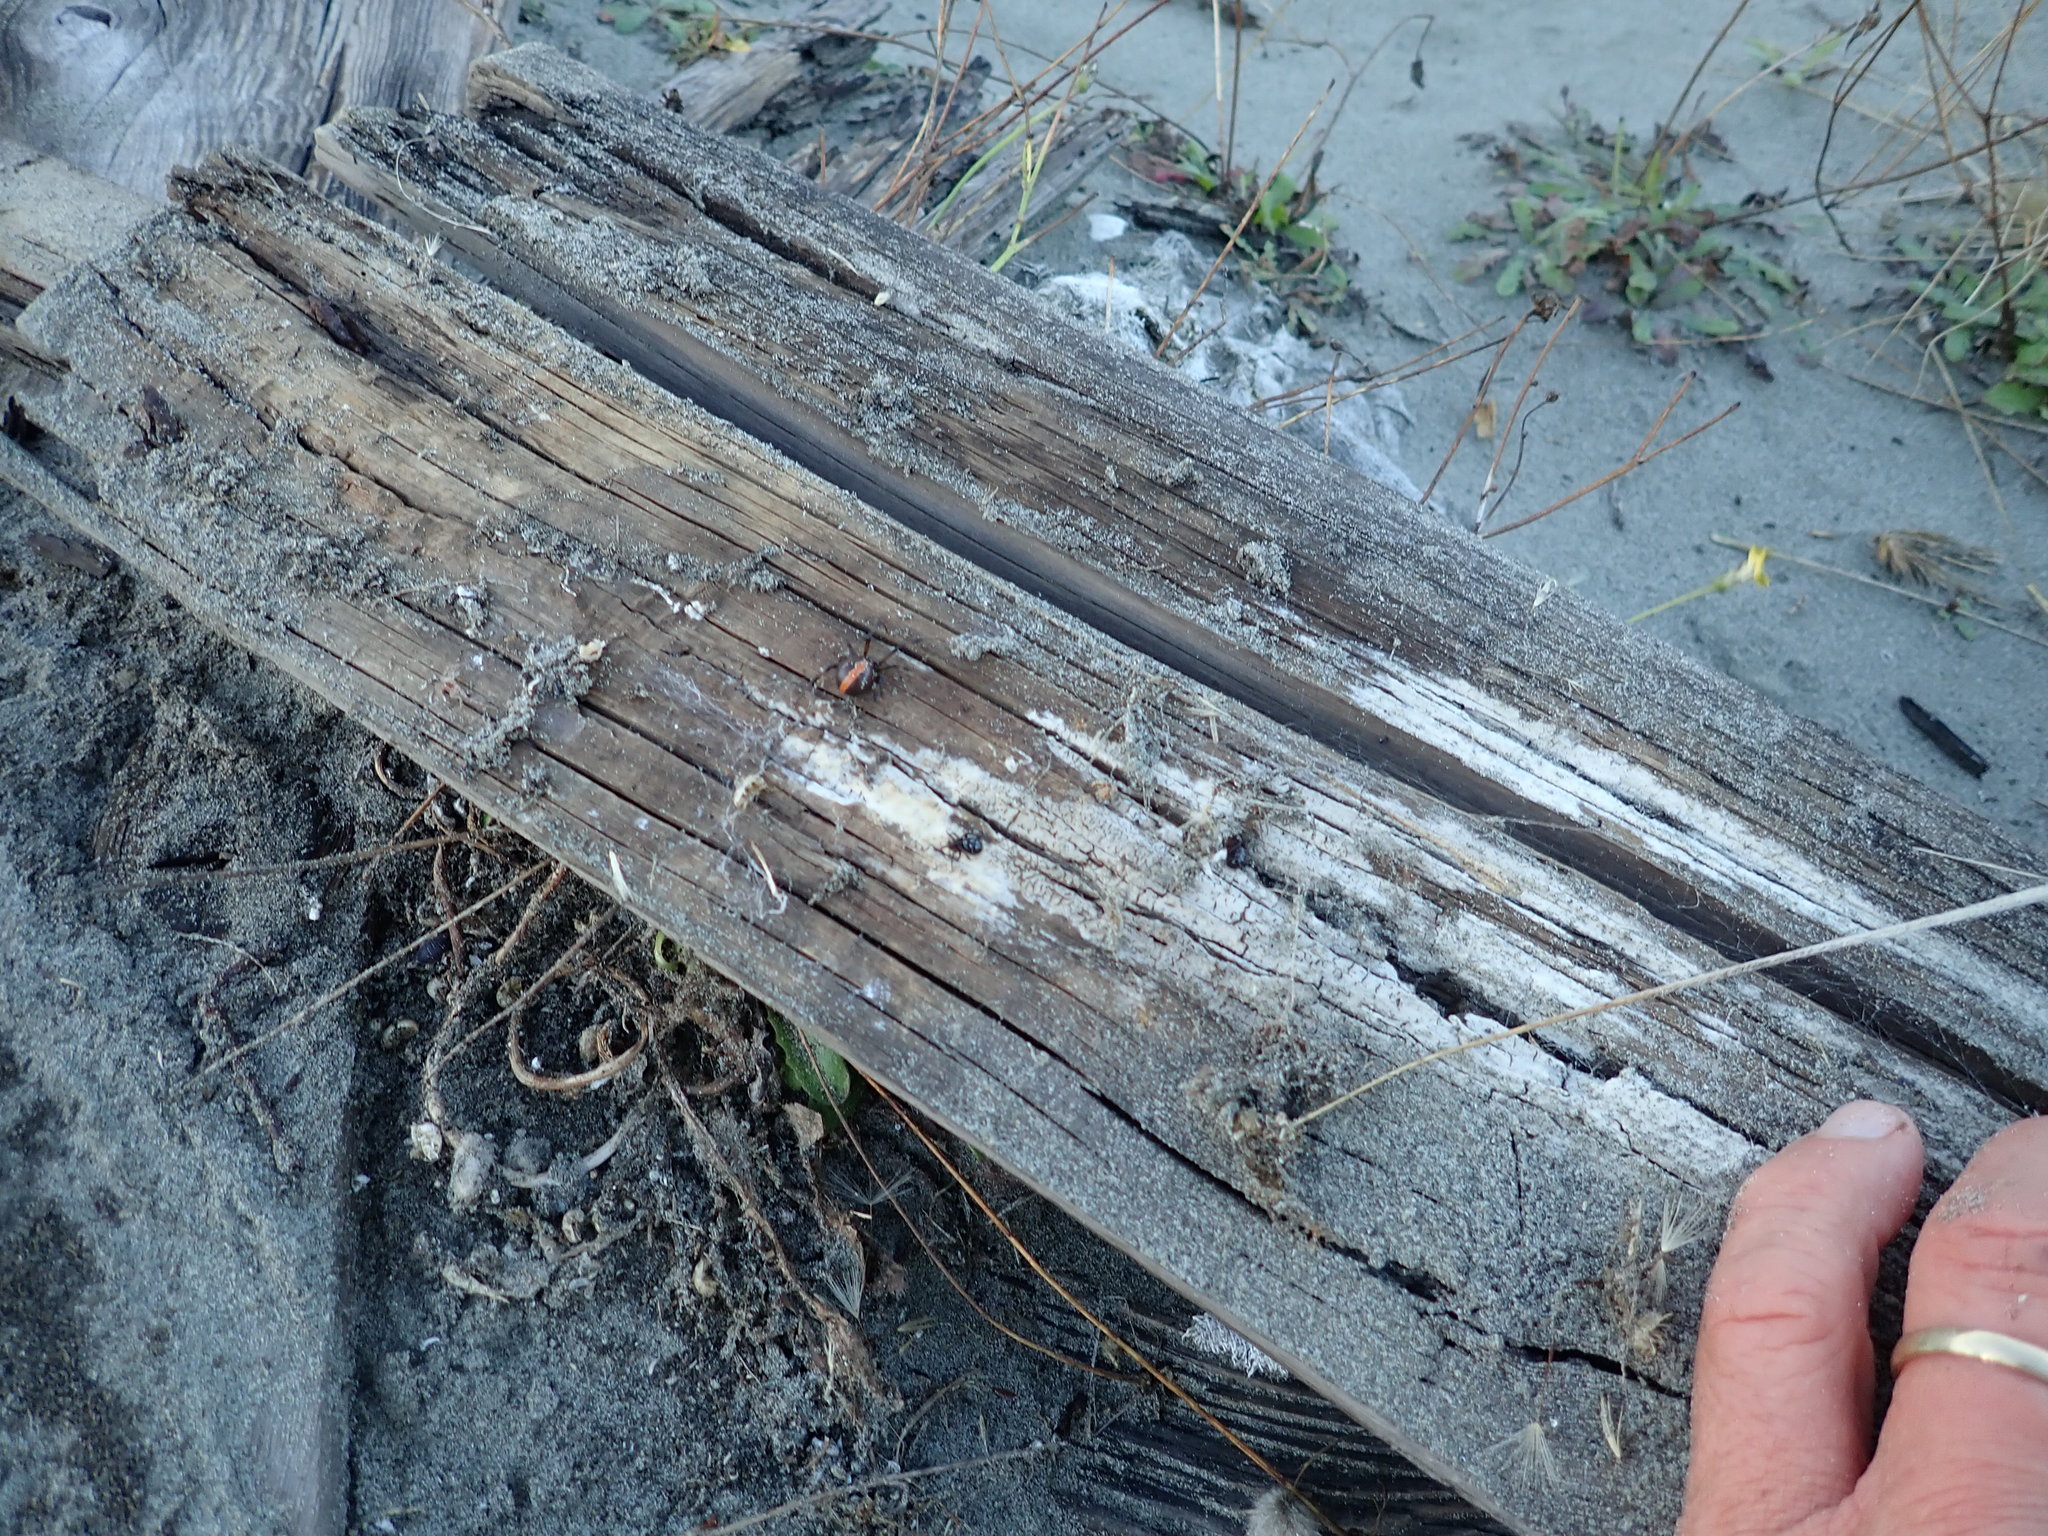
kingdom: Animalia
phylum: Arthropoda
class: Arachnida
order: Araneae
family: Theridiidae
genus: Steatoda
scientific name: Steatoda capensis
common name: Cobweb weaver
